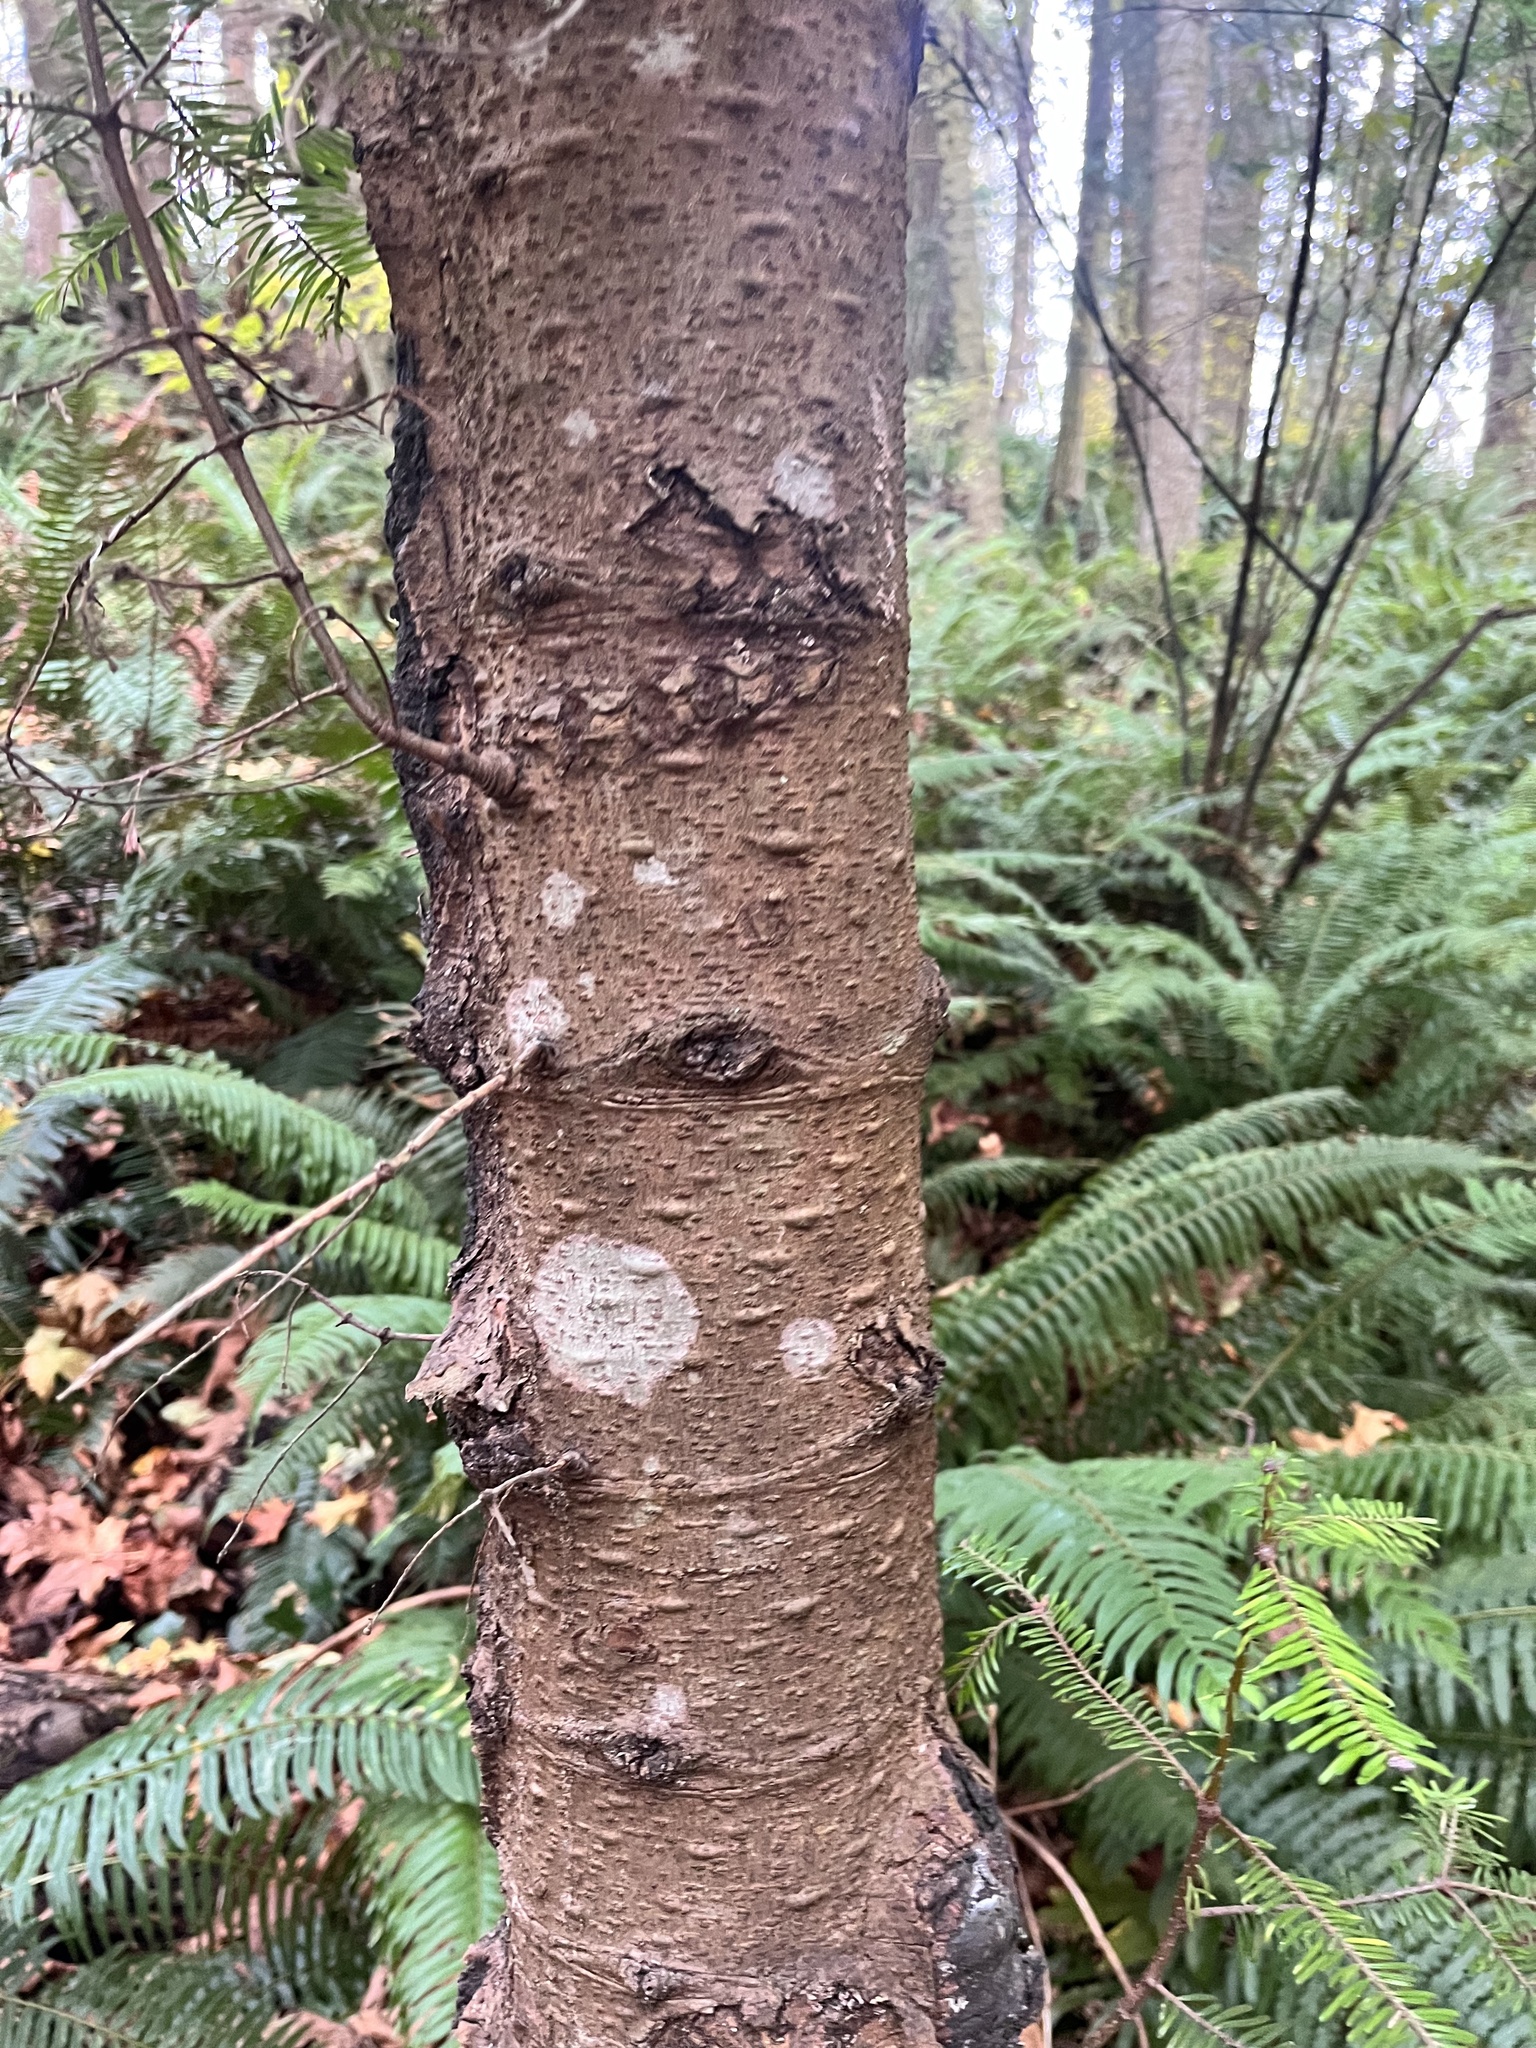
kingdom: Plantae
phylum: Tracheophyta
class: Pinopsida
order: Pinales
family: Pinaceae
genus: Abies
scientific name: Abies grandis
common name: Giant fir
